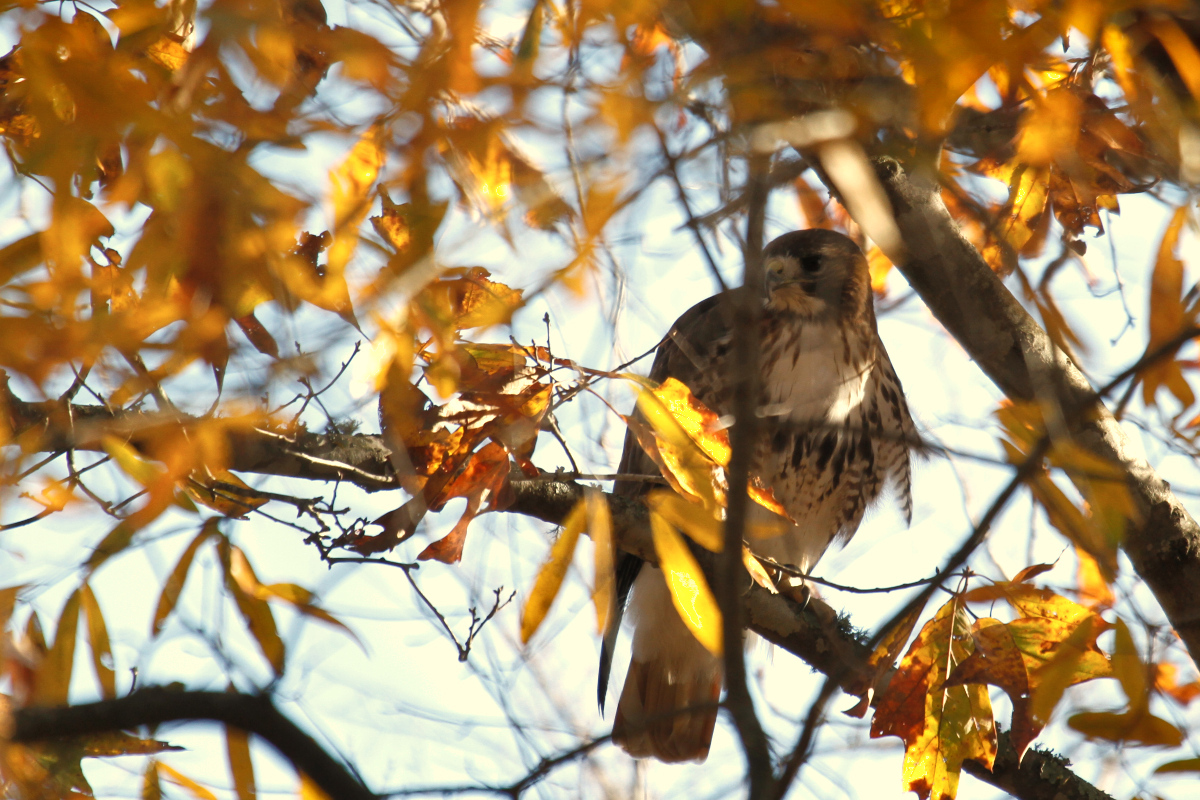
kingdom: Animalia
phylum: Chordata
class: Aves
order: Accipitriformes
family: Accipitridae
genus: Buteo
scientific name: Buteo jamaicensis
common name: Red-tailed hawk
